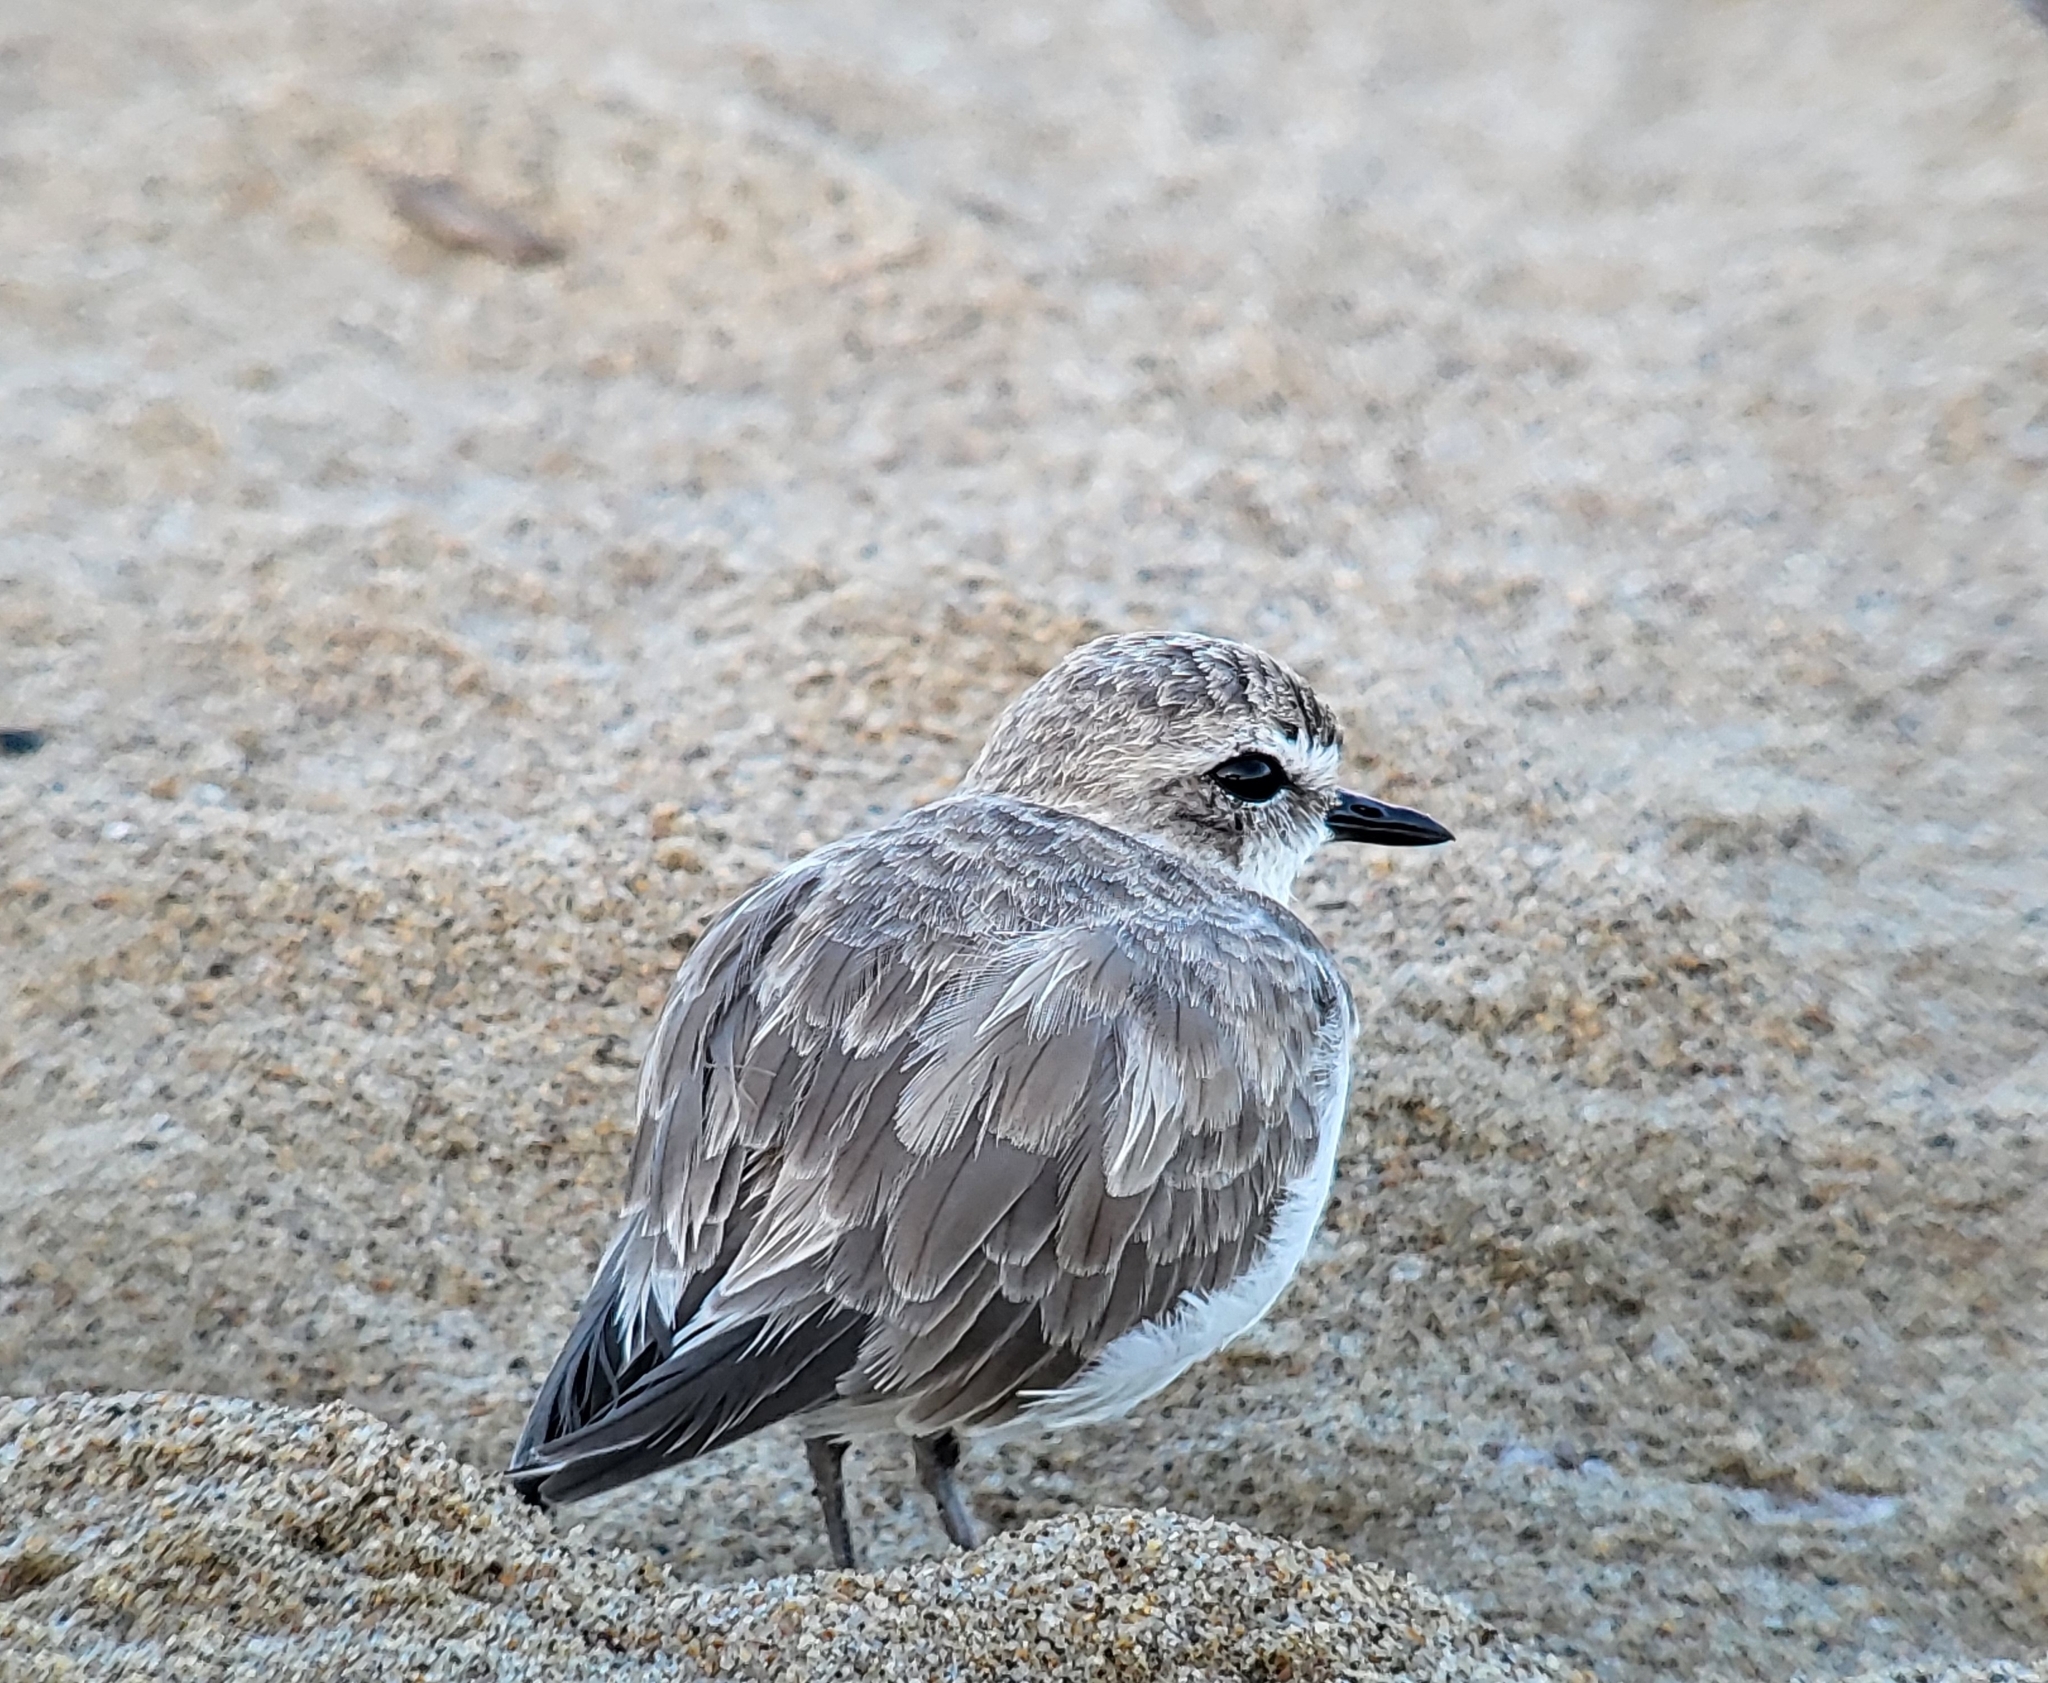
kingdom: Animalia
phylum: Chordata
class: Aves
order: Charadriiformes
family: Charadriidae
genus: Anarhynchus
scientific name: Anarhynchus
